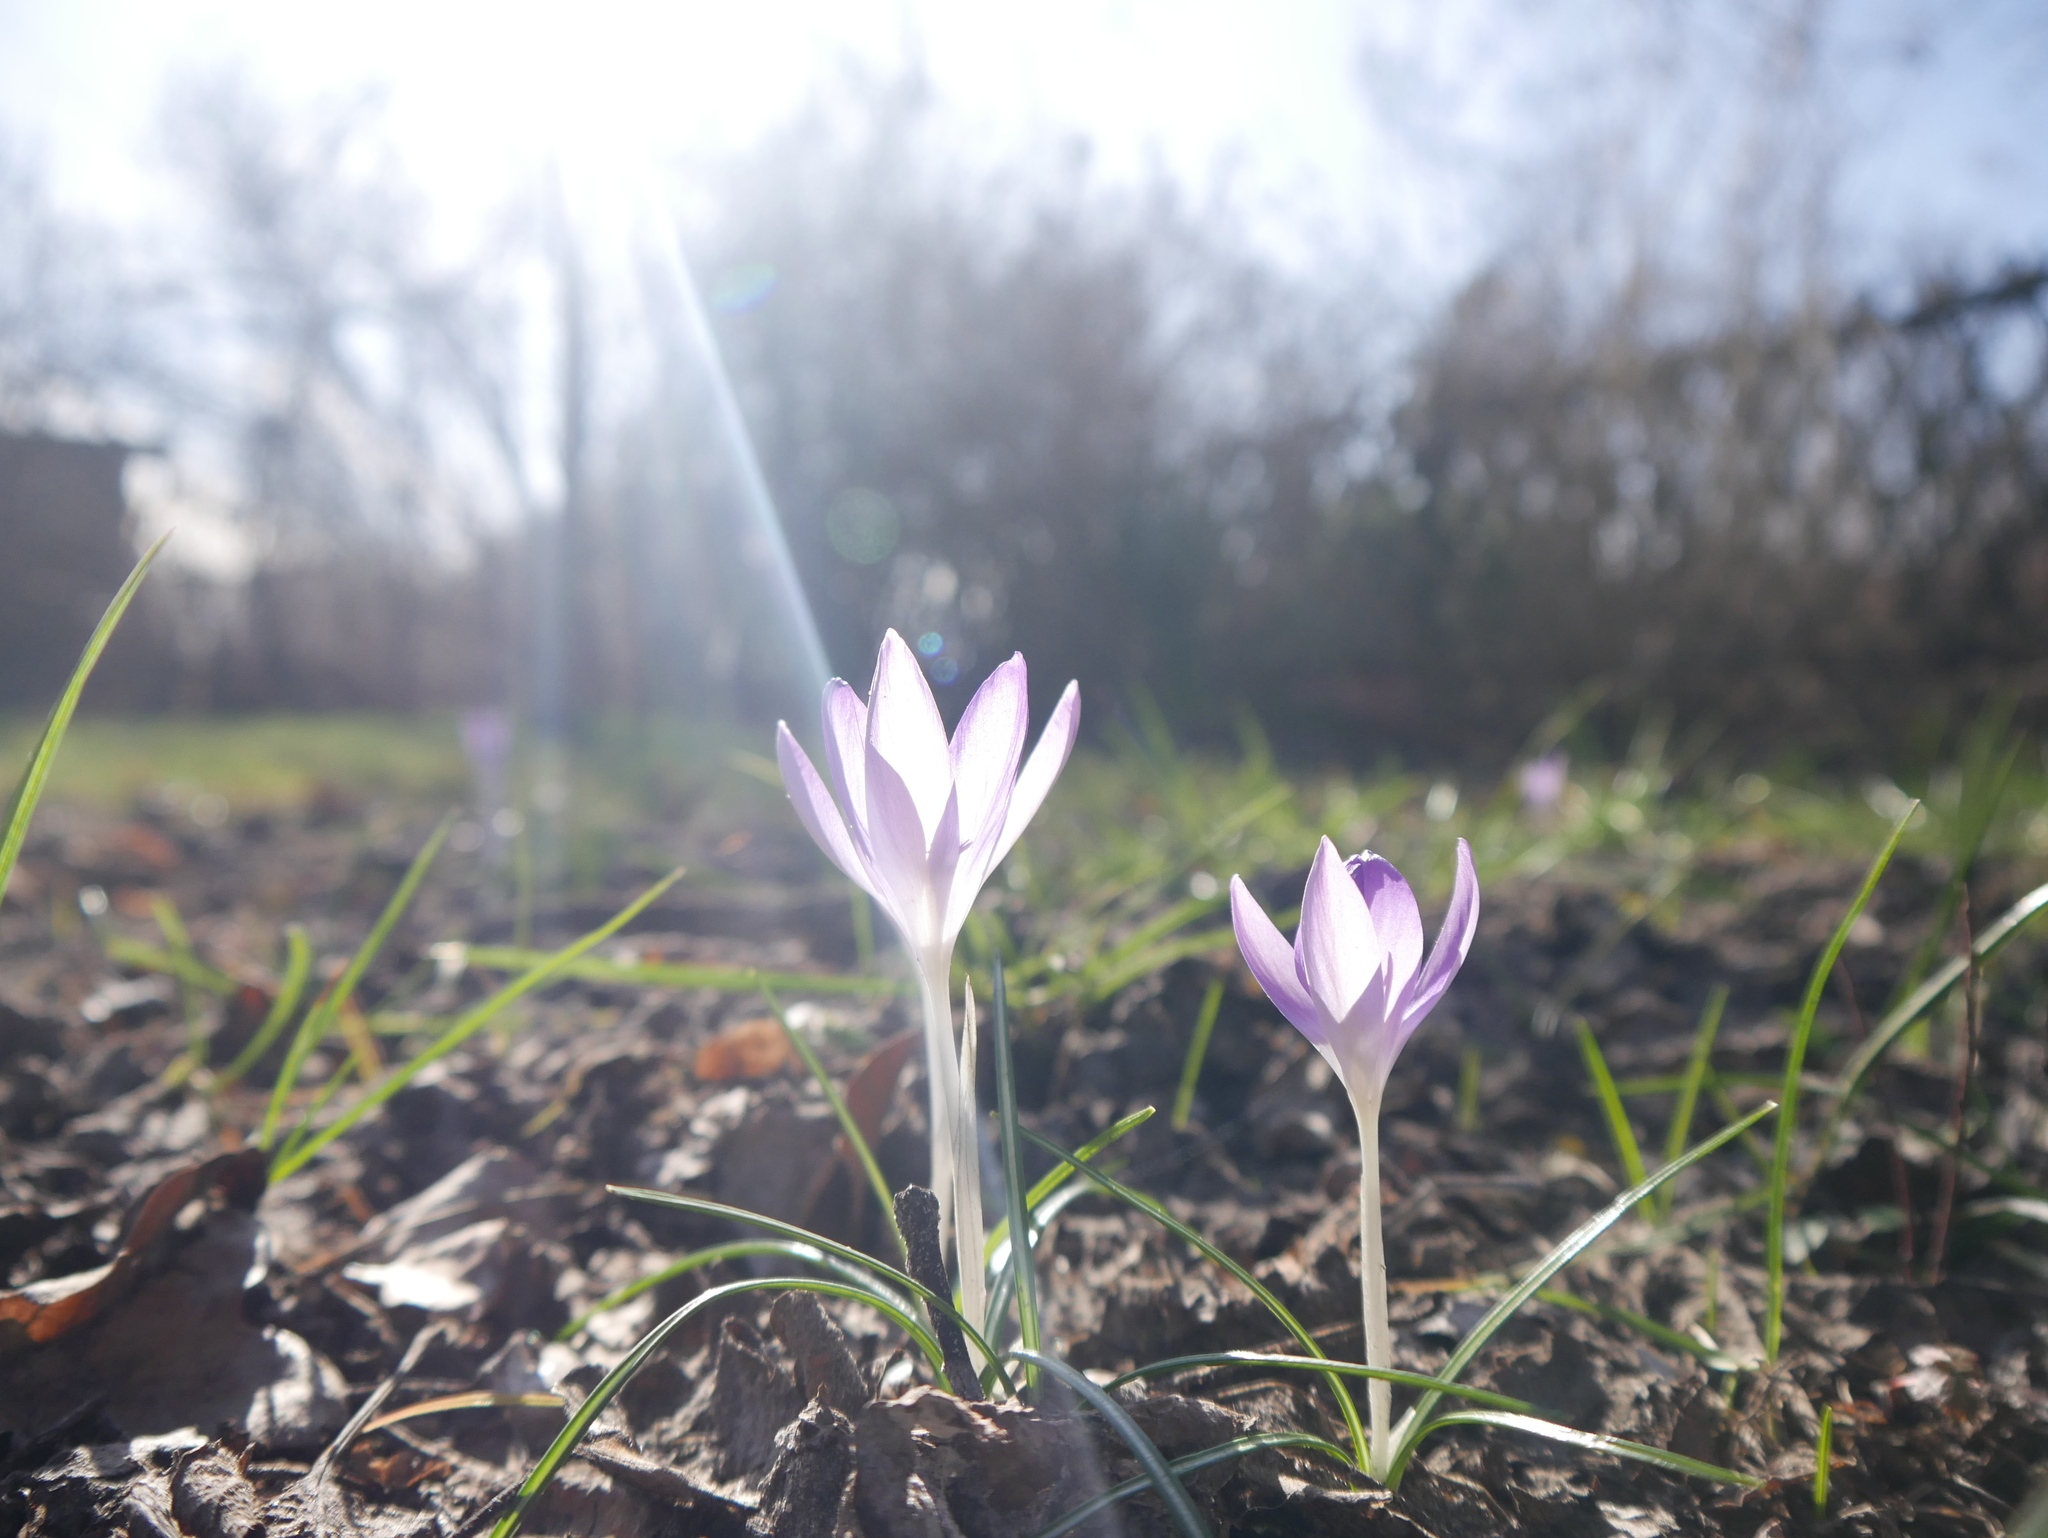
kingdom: Plantae
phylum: Tracheophyta
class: Liliopsida
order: Asparagales
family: Iridaceae
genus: Crocus
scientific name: Crocus tommasinianus
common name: Early crocus
